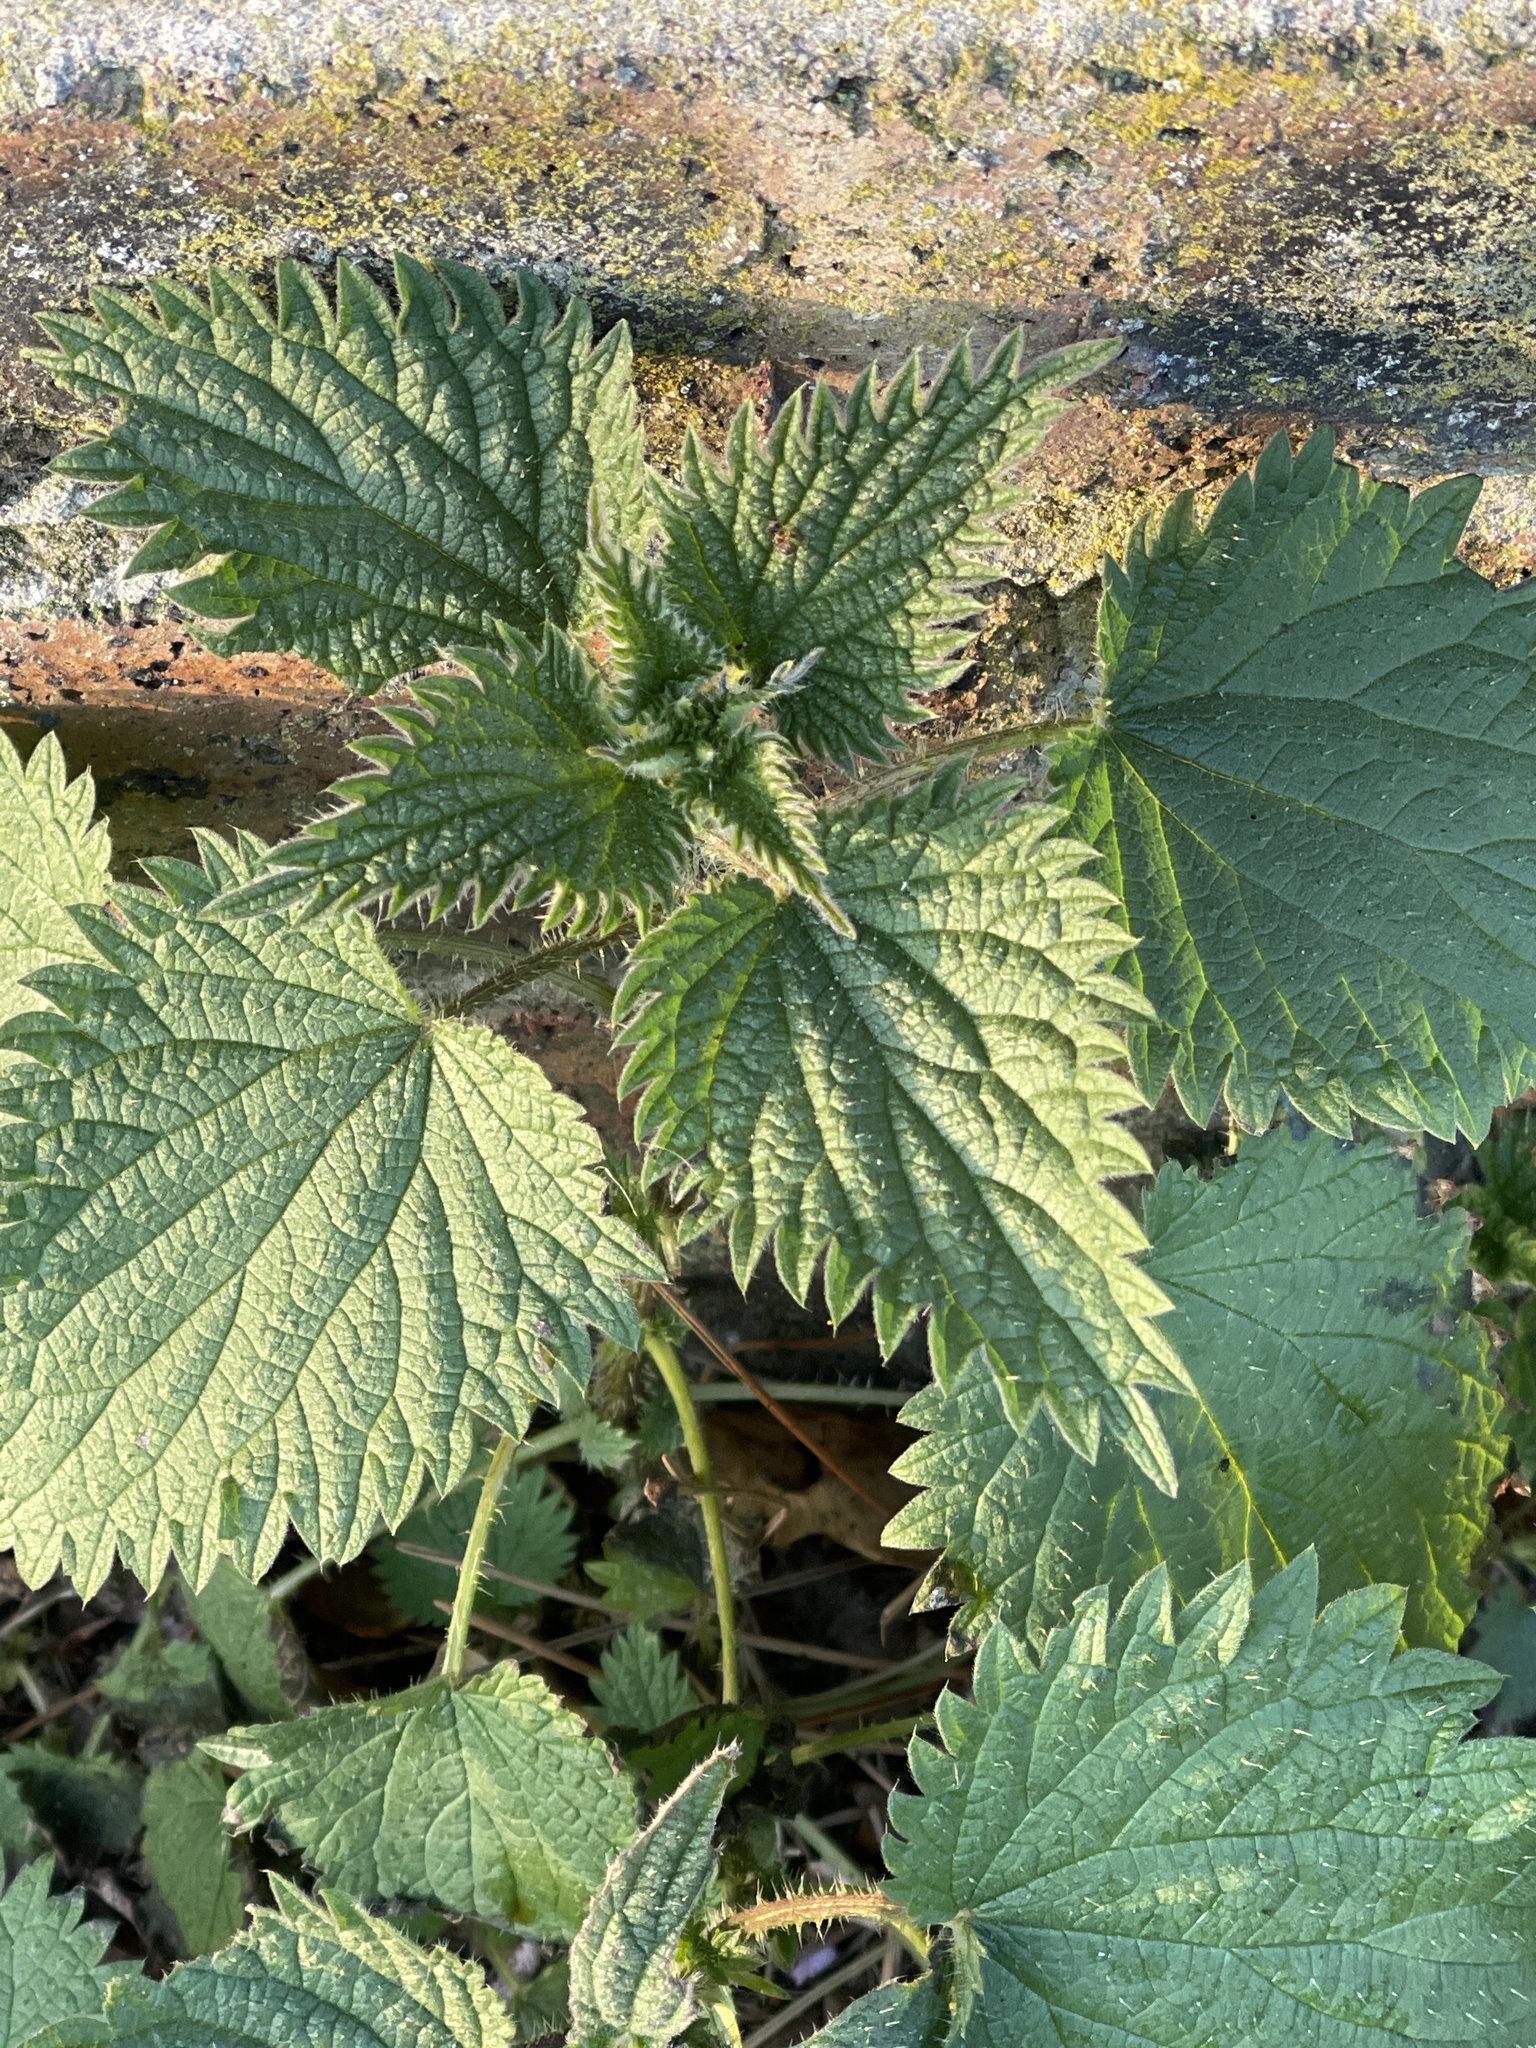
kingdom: Plantae
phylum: Tracheophyta
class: Magnoliopsida
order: Rosales
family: Urticaceae
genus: Urtica
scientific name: Urtica dioica
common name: Common nettle
